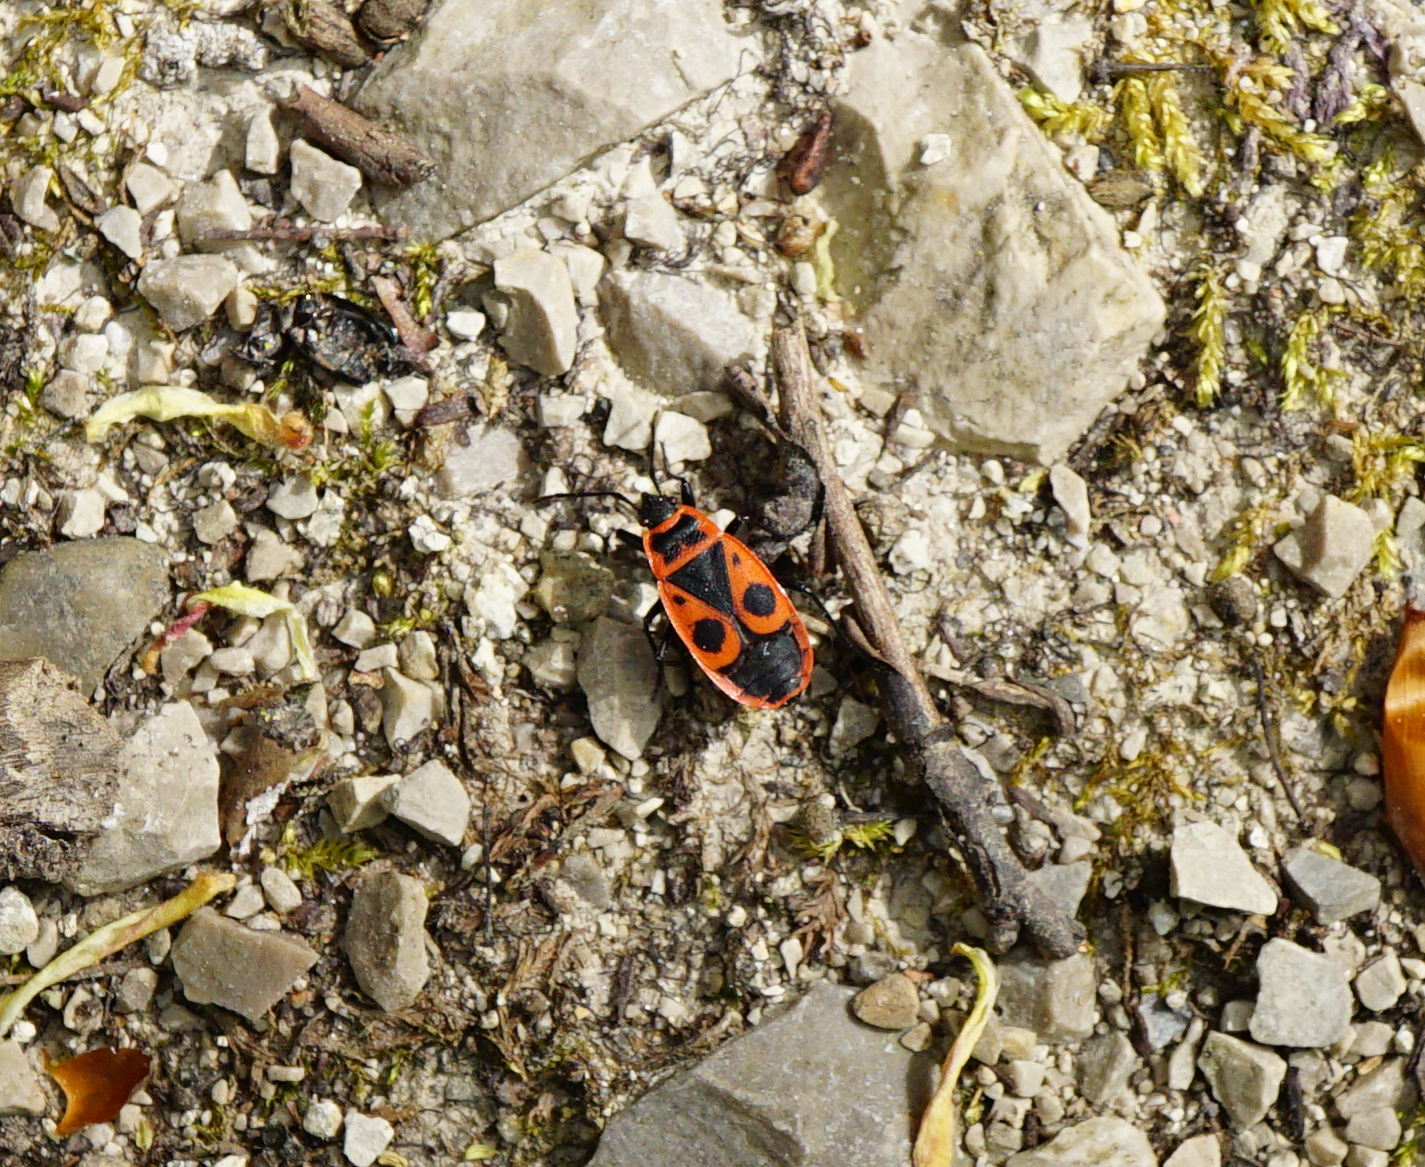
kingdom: Animalia
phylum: Arthropoda
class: Insecta
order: Hemiptera
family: Pyrrhocoridae
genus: Pyrrhocoris
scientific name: Pyrrhocoris apterus
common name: Firebug
